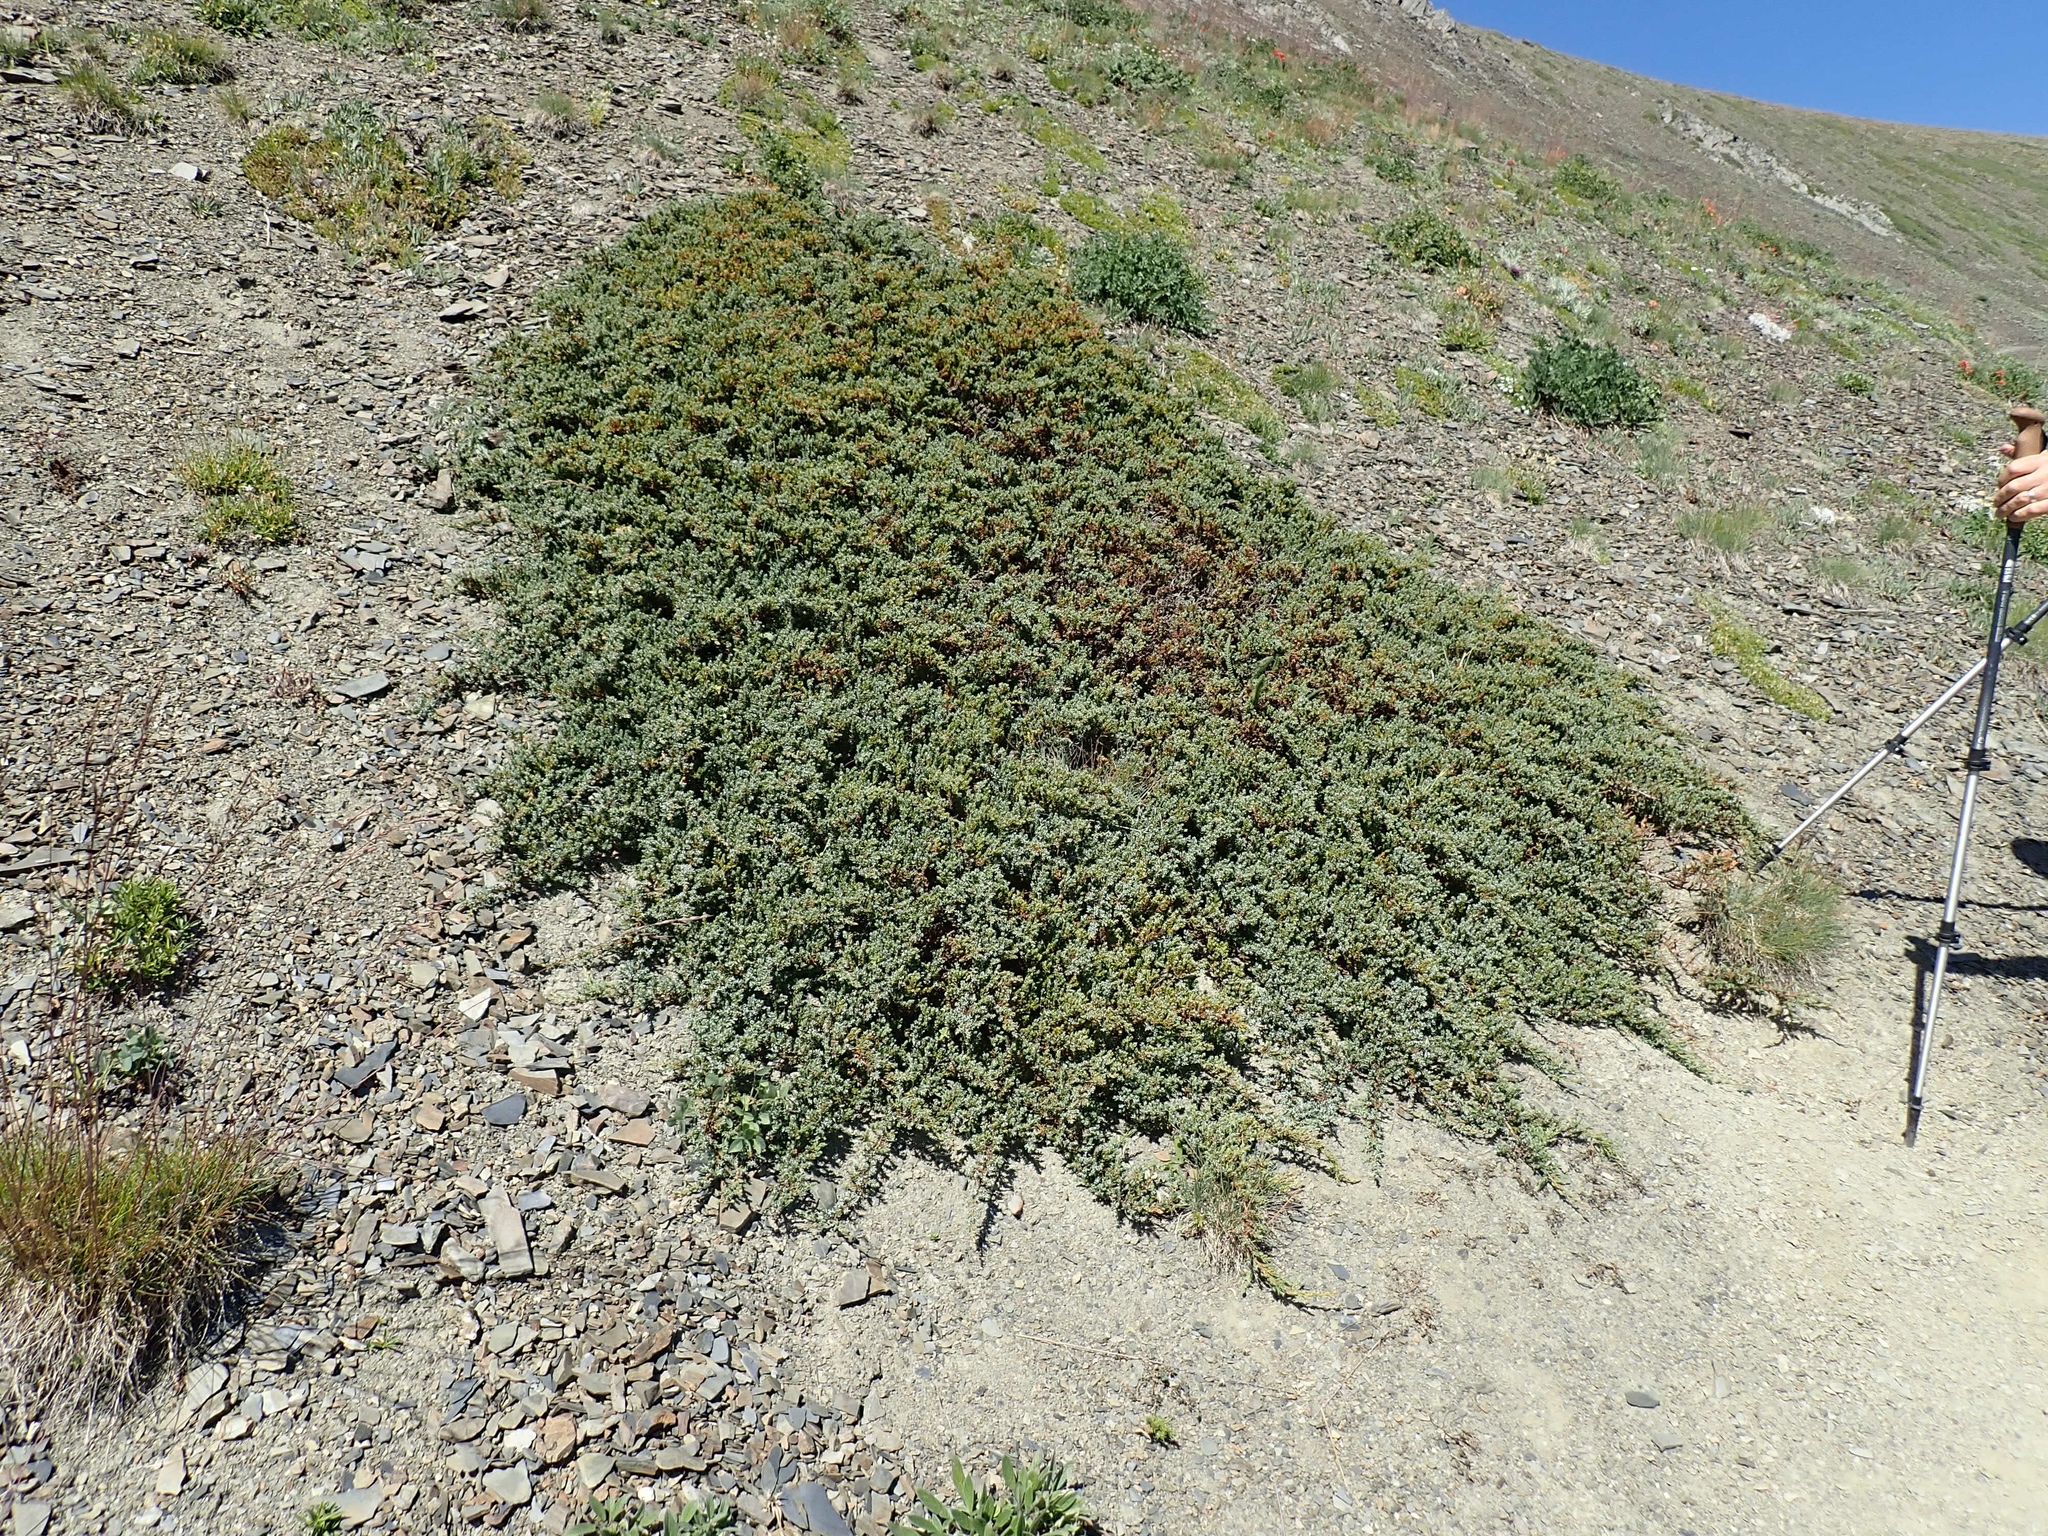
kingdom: Plantae
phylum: Tracheophyta
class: Pinopsida
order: Pinales
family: Cupressaceae
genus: Juniperus
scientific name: Juniperus communis
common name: Common juniper
